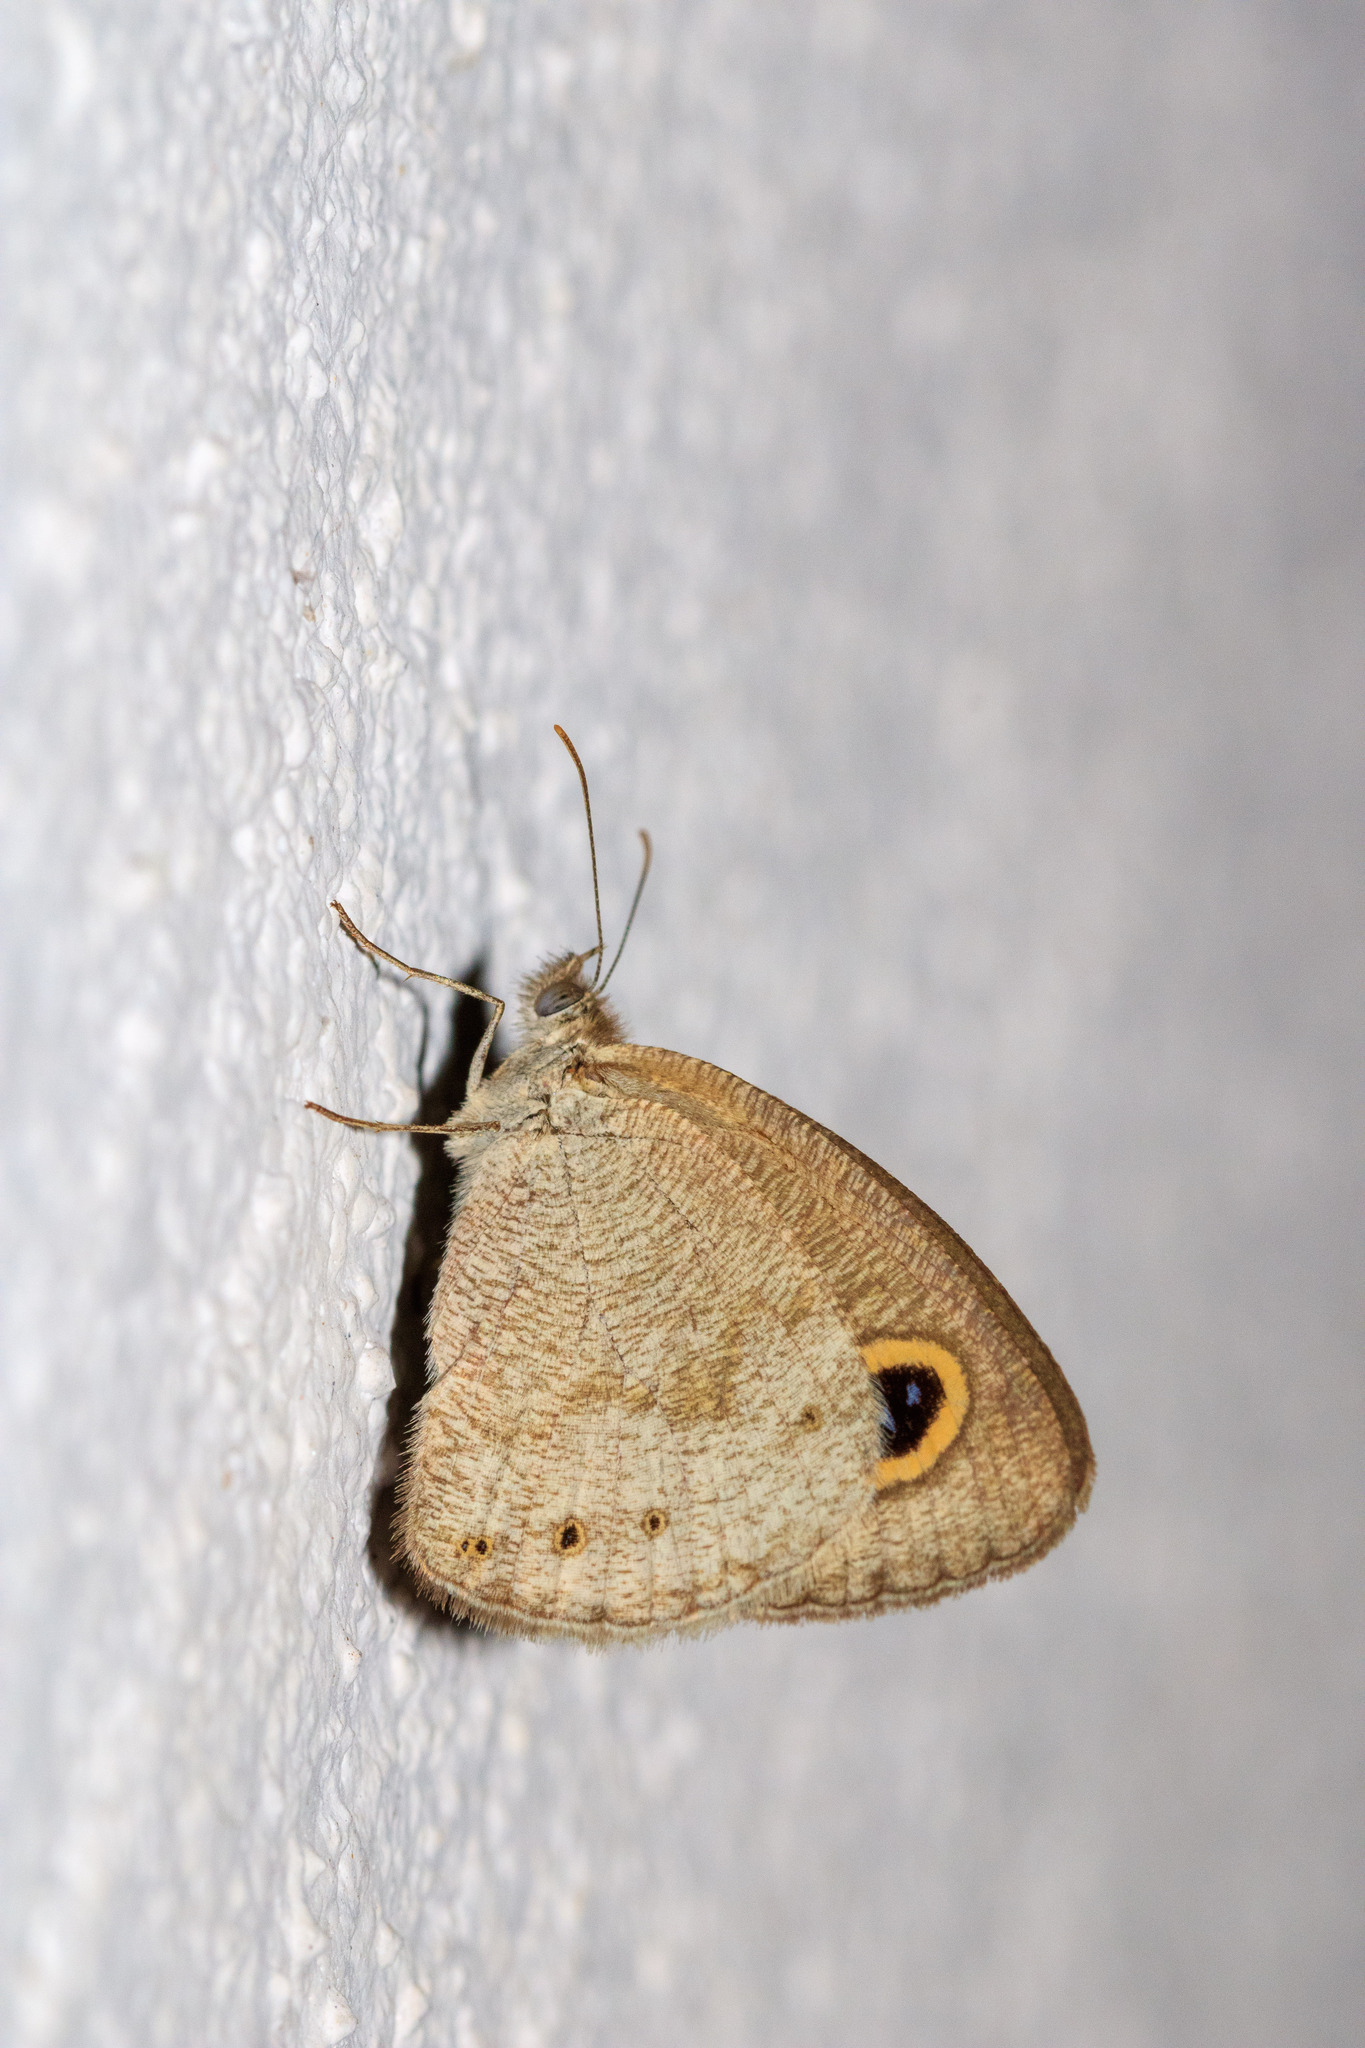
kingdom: Animalia
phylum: Arthropoda
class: Insecta
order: Lepidoptera
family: Nymphalidae
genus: Ypthima
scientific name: Ypthima huebneri
